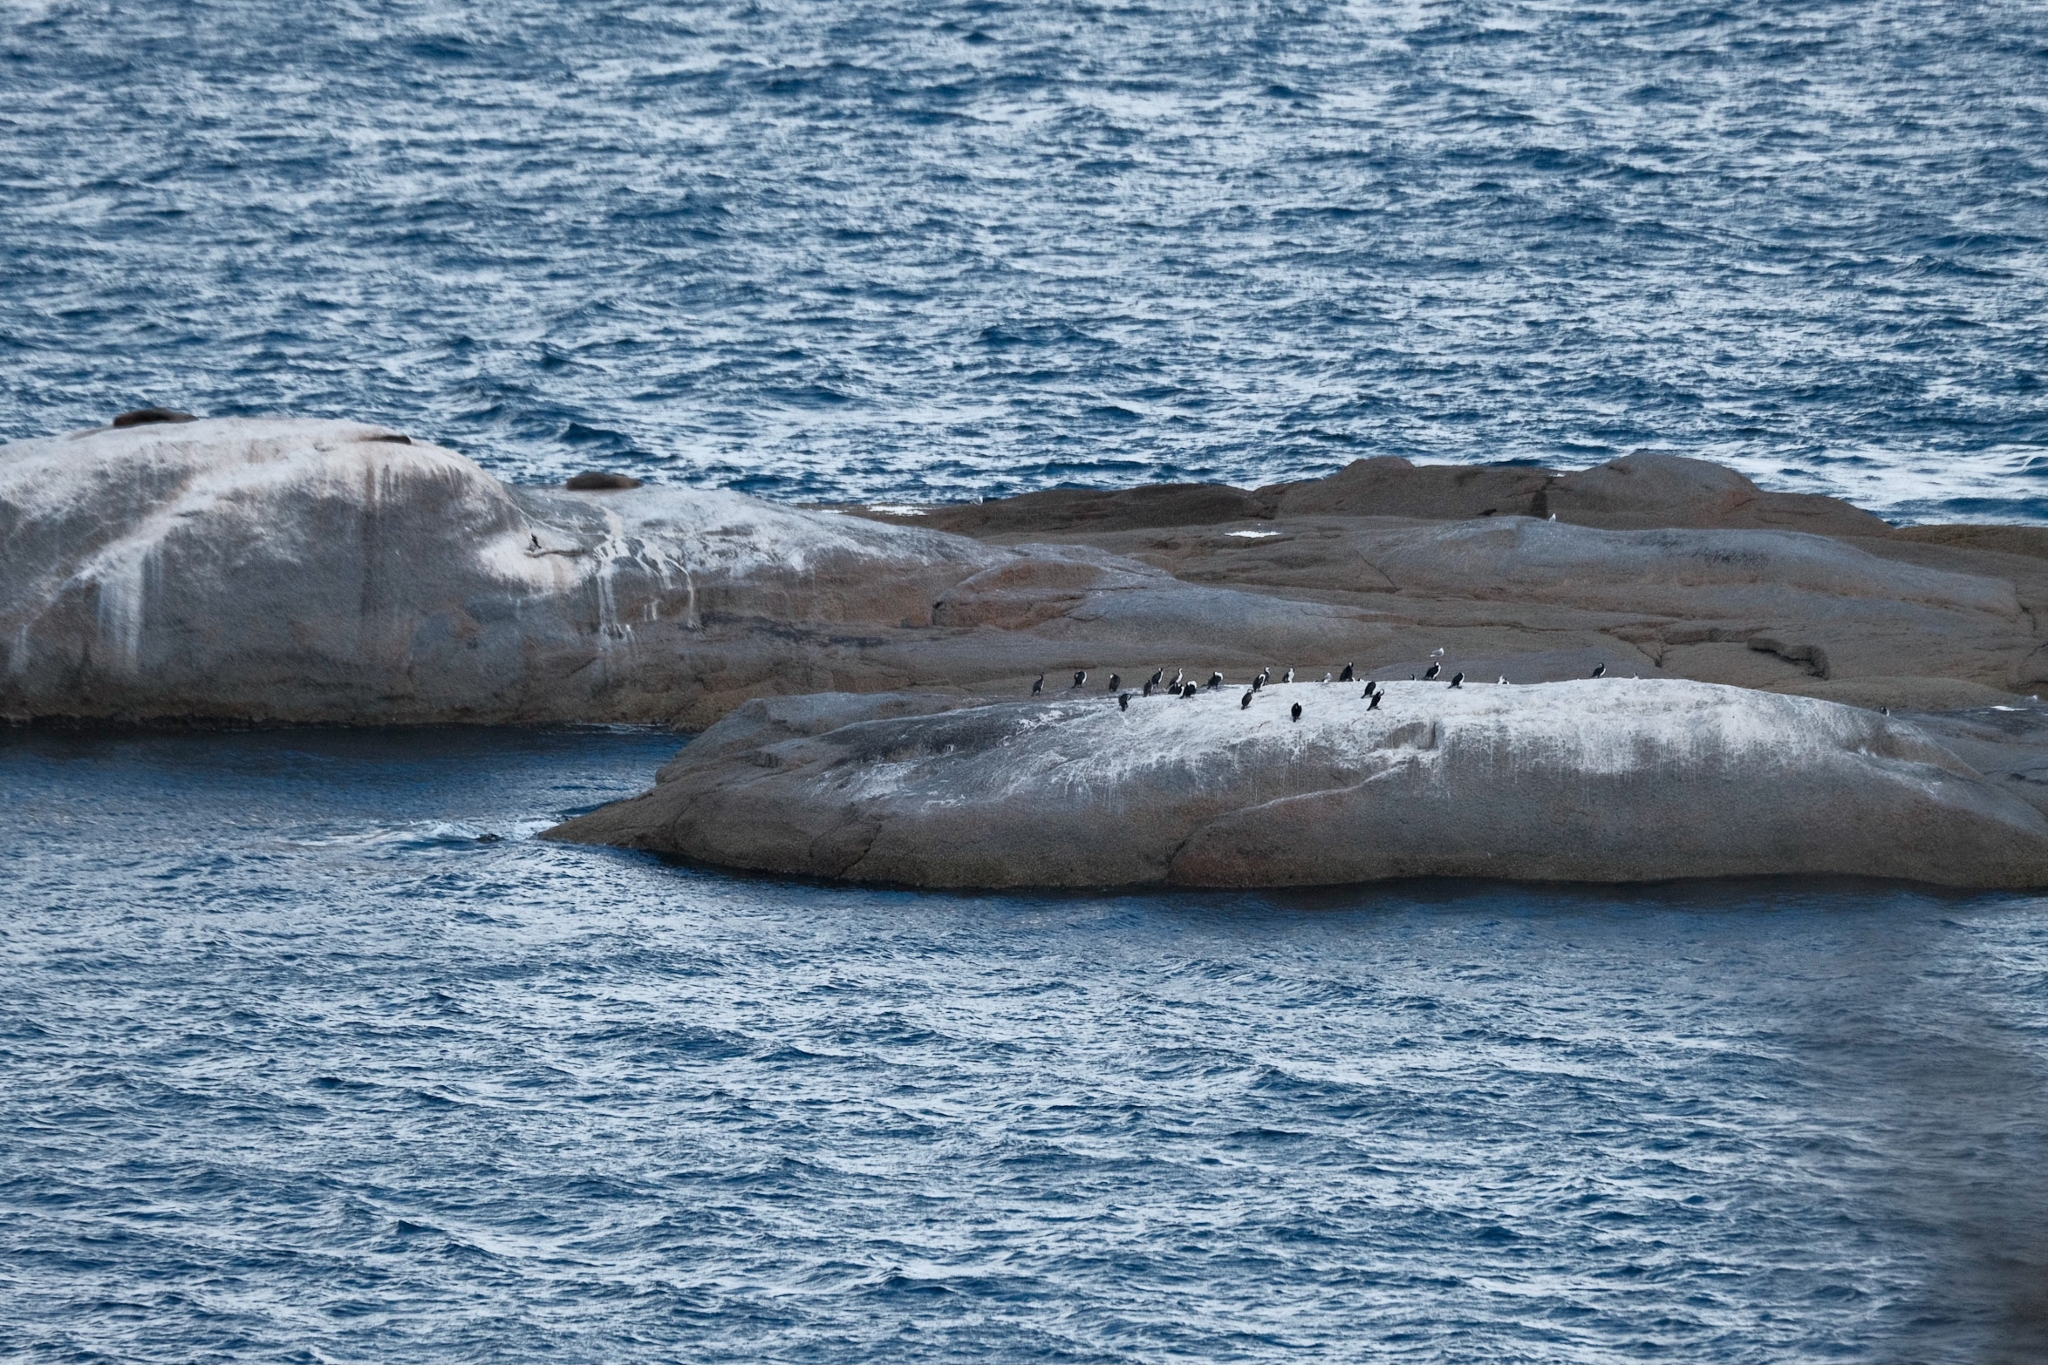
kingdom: Animalia
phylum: Chordata
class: Aves
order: Suliformes
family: Phalacrocoracidae
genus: Phalacrocorax
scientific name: Phalacrocorax fuscescens
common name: Black-faced cormorant
